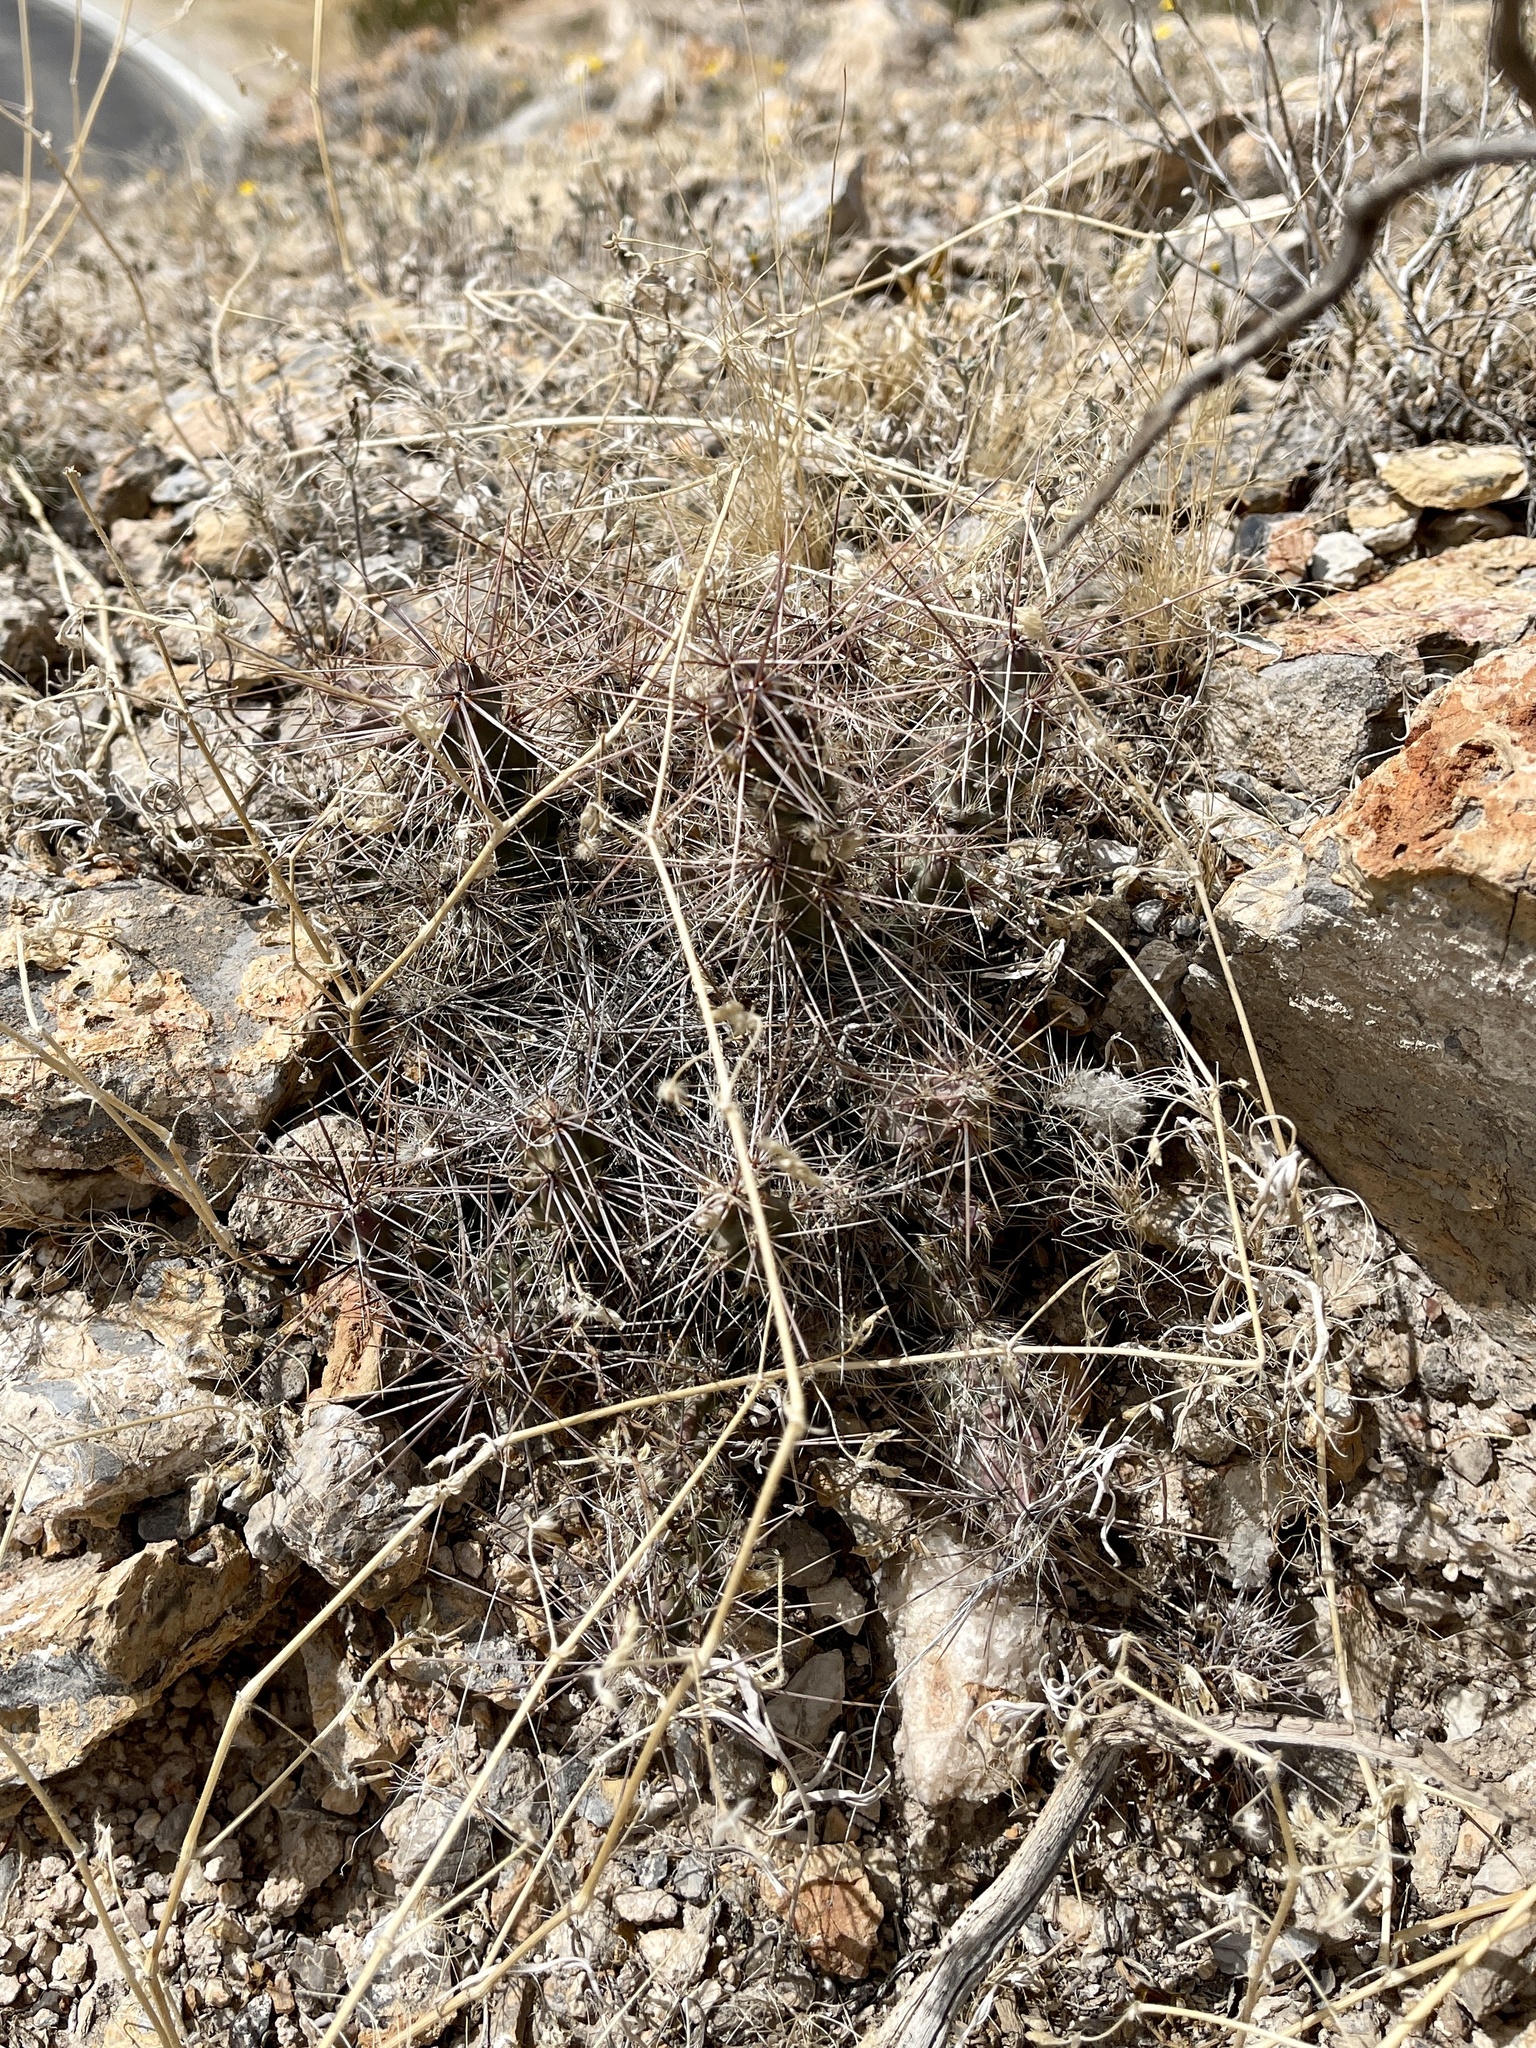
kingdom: Plantae
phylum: Tracheophyta
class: Magnoliopsida
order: Caryophyllales
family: Cactaceae
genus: Grusonia
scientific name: Grusonia grahamii
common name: Graham's club cactus
